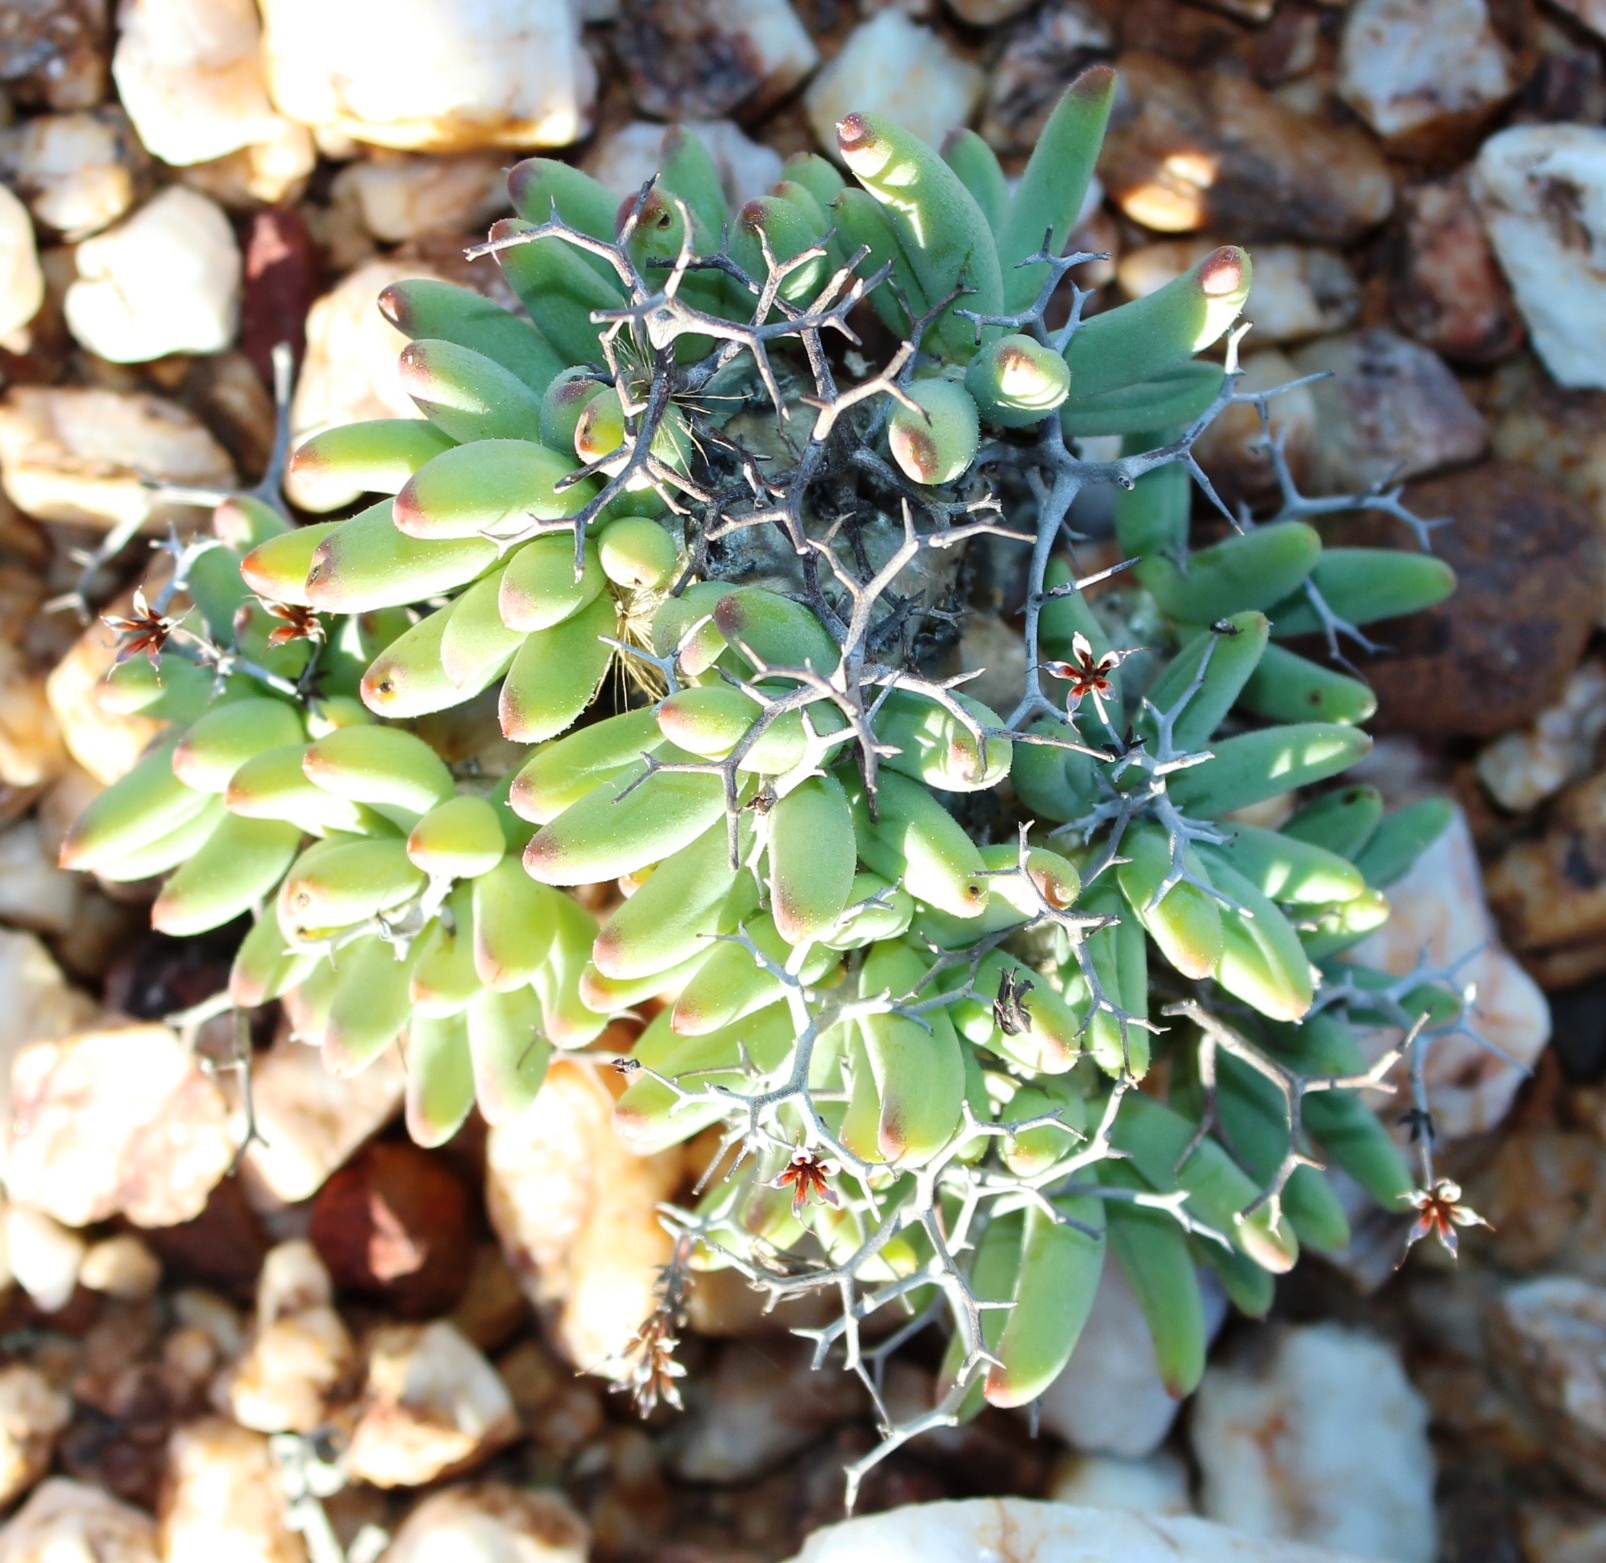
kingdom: Plantae
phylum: Tracheophyta
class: Magnoliopsida
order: Saxifragales
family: Crassulaceae
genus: Tylecodon
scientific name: Tylecodon reticulatus
